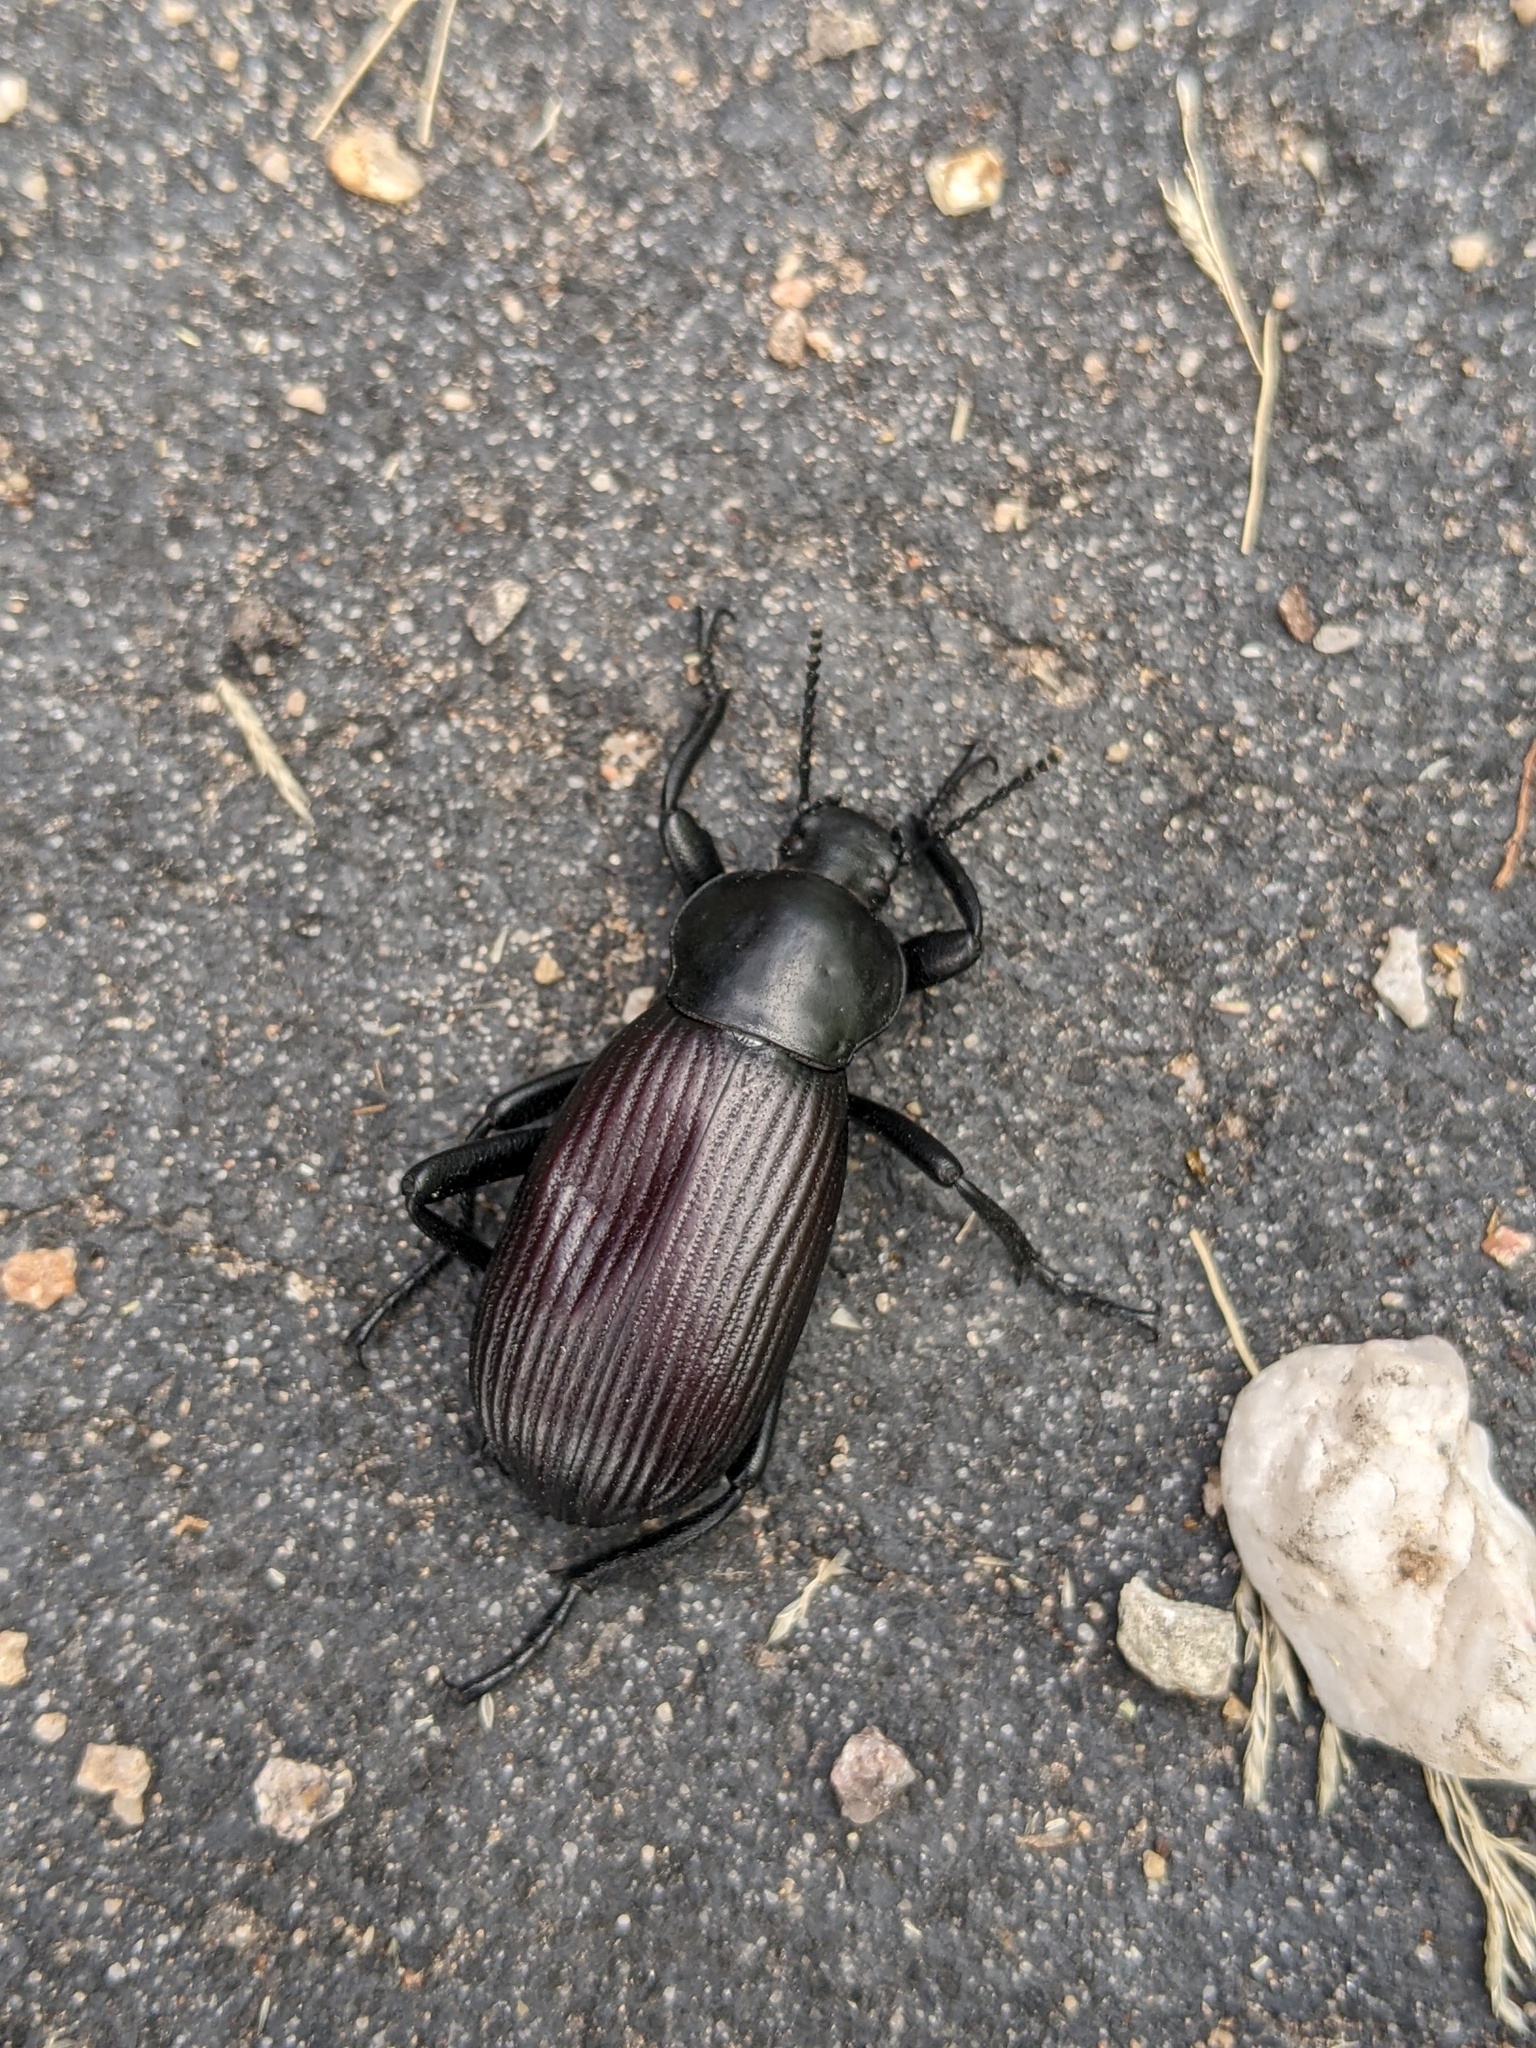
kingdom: Animalia
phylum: Arthropoda
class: Insecta
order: Coleoptera
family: Tenebrionidae
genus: Eleodes
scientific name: Eleodes obscura
